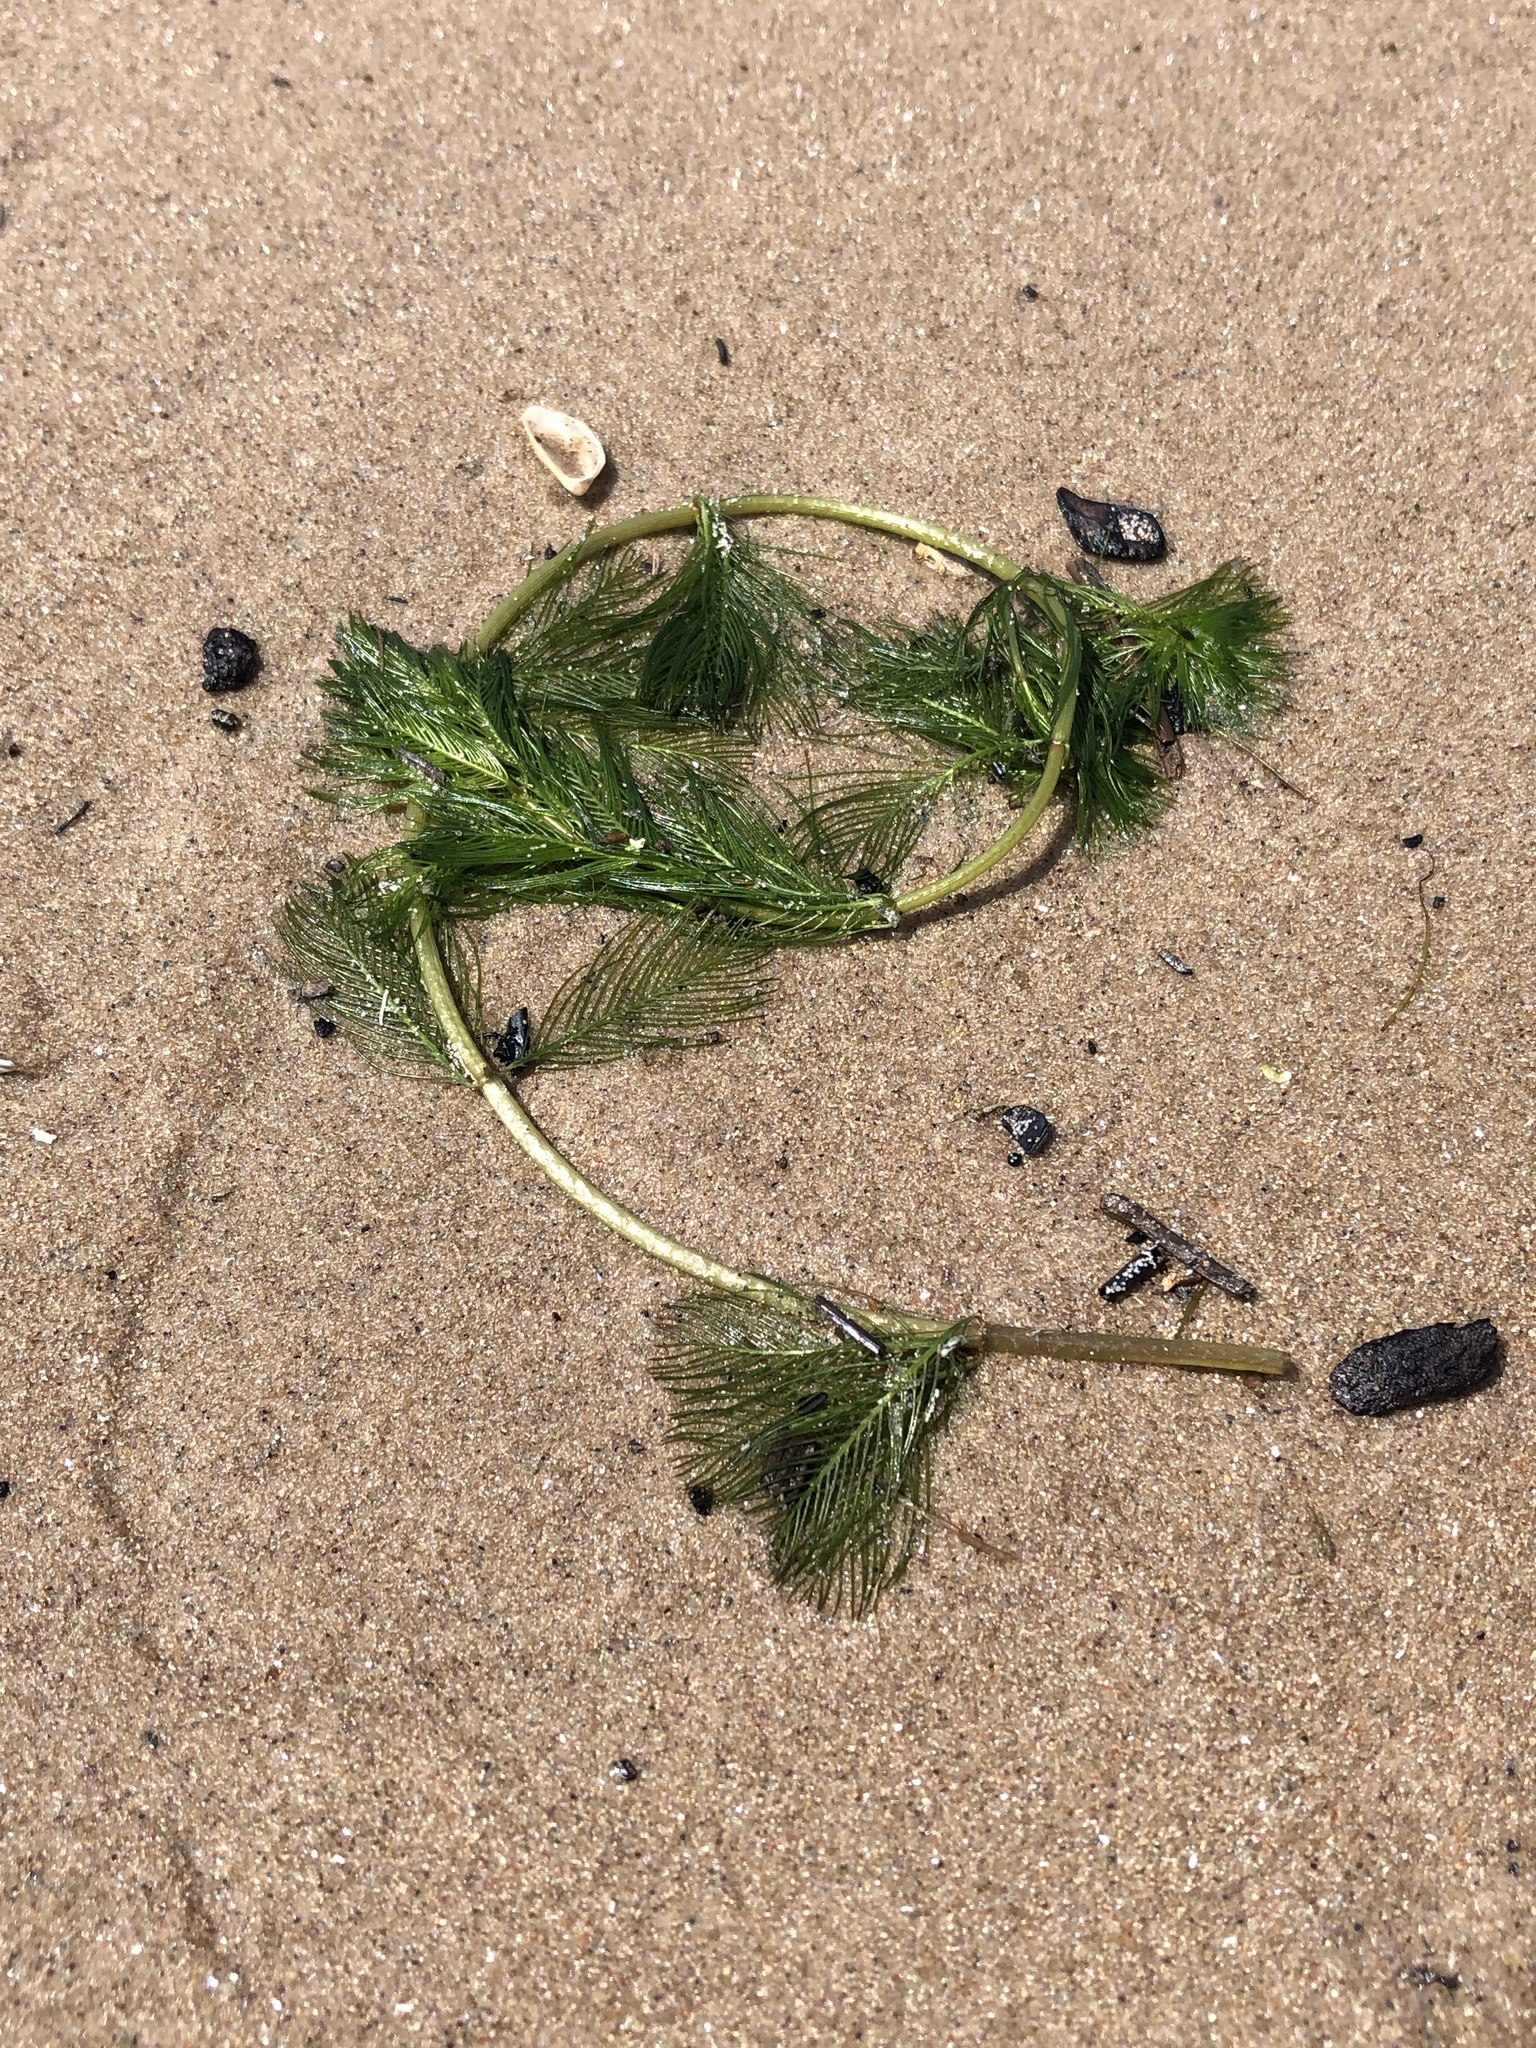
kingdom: Plantae
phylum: Tracheophyta
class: Magnoliopsida
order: Saxifragales
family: Haloragaceae
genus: Myriophyllum
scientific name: Myriophyllum spicatum
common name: Spiked water-milfoil
